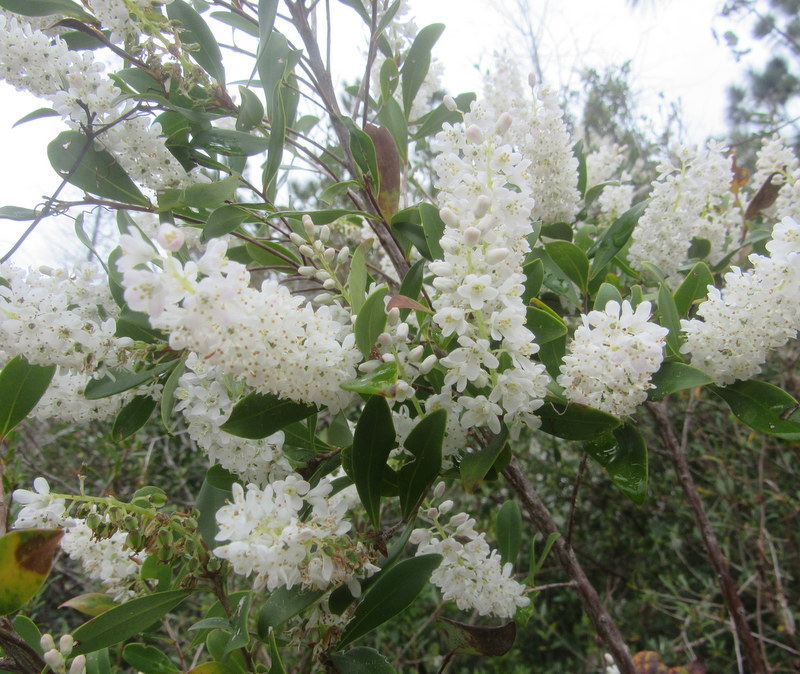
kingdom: Plantae
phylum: Tracheophyta
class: Magnoliopsida
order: Ericales
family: Cyrillaceae
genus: Cliftonia
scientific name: Cliftonia monophylla
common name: Titi
